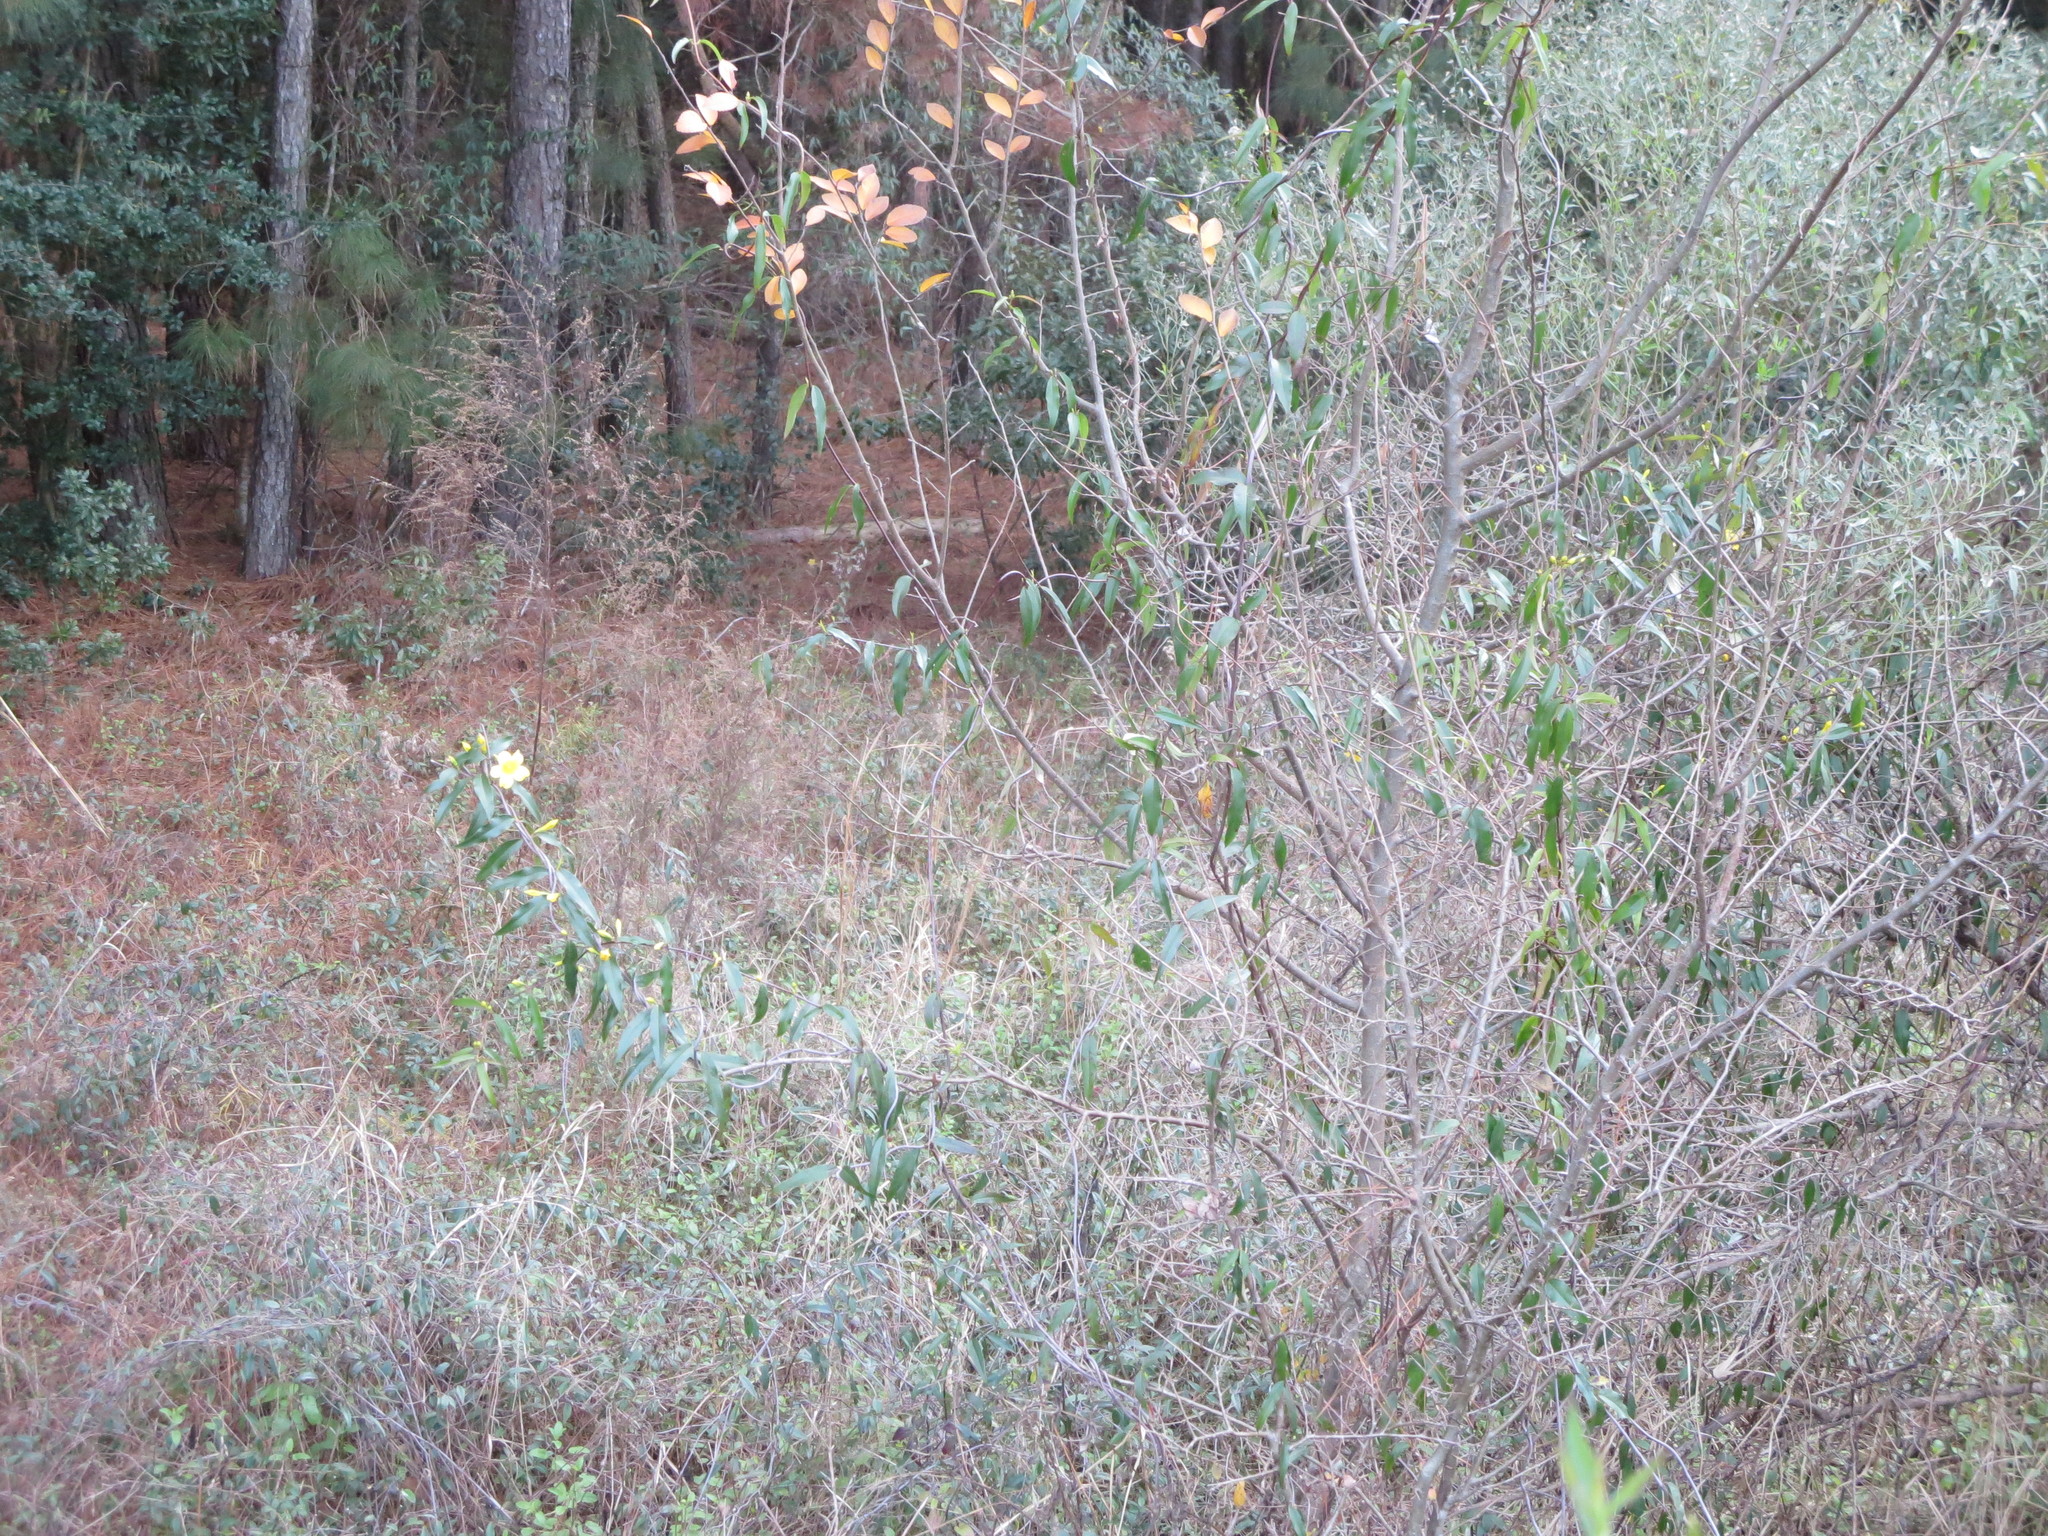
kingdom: Plantae
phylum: Tracheophyta
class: Magnoliopsida
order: Gentianales
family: Gelsemiaceae
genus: Gelsemium
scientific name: Gelsemium sempervirens
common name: Carolina-jasmine
